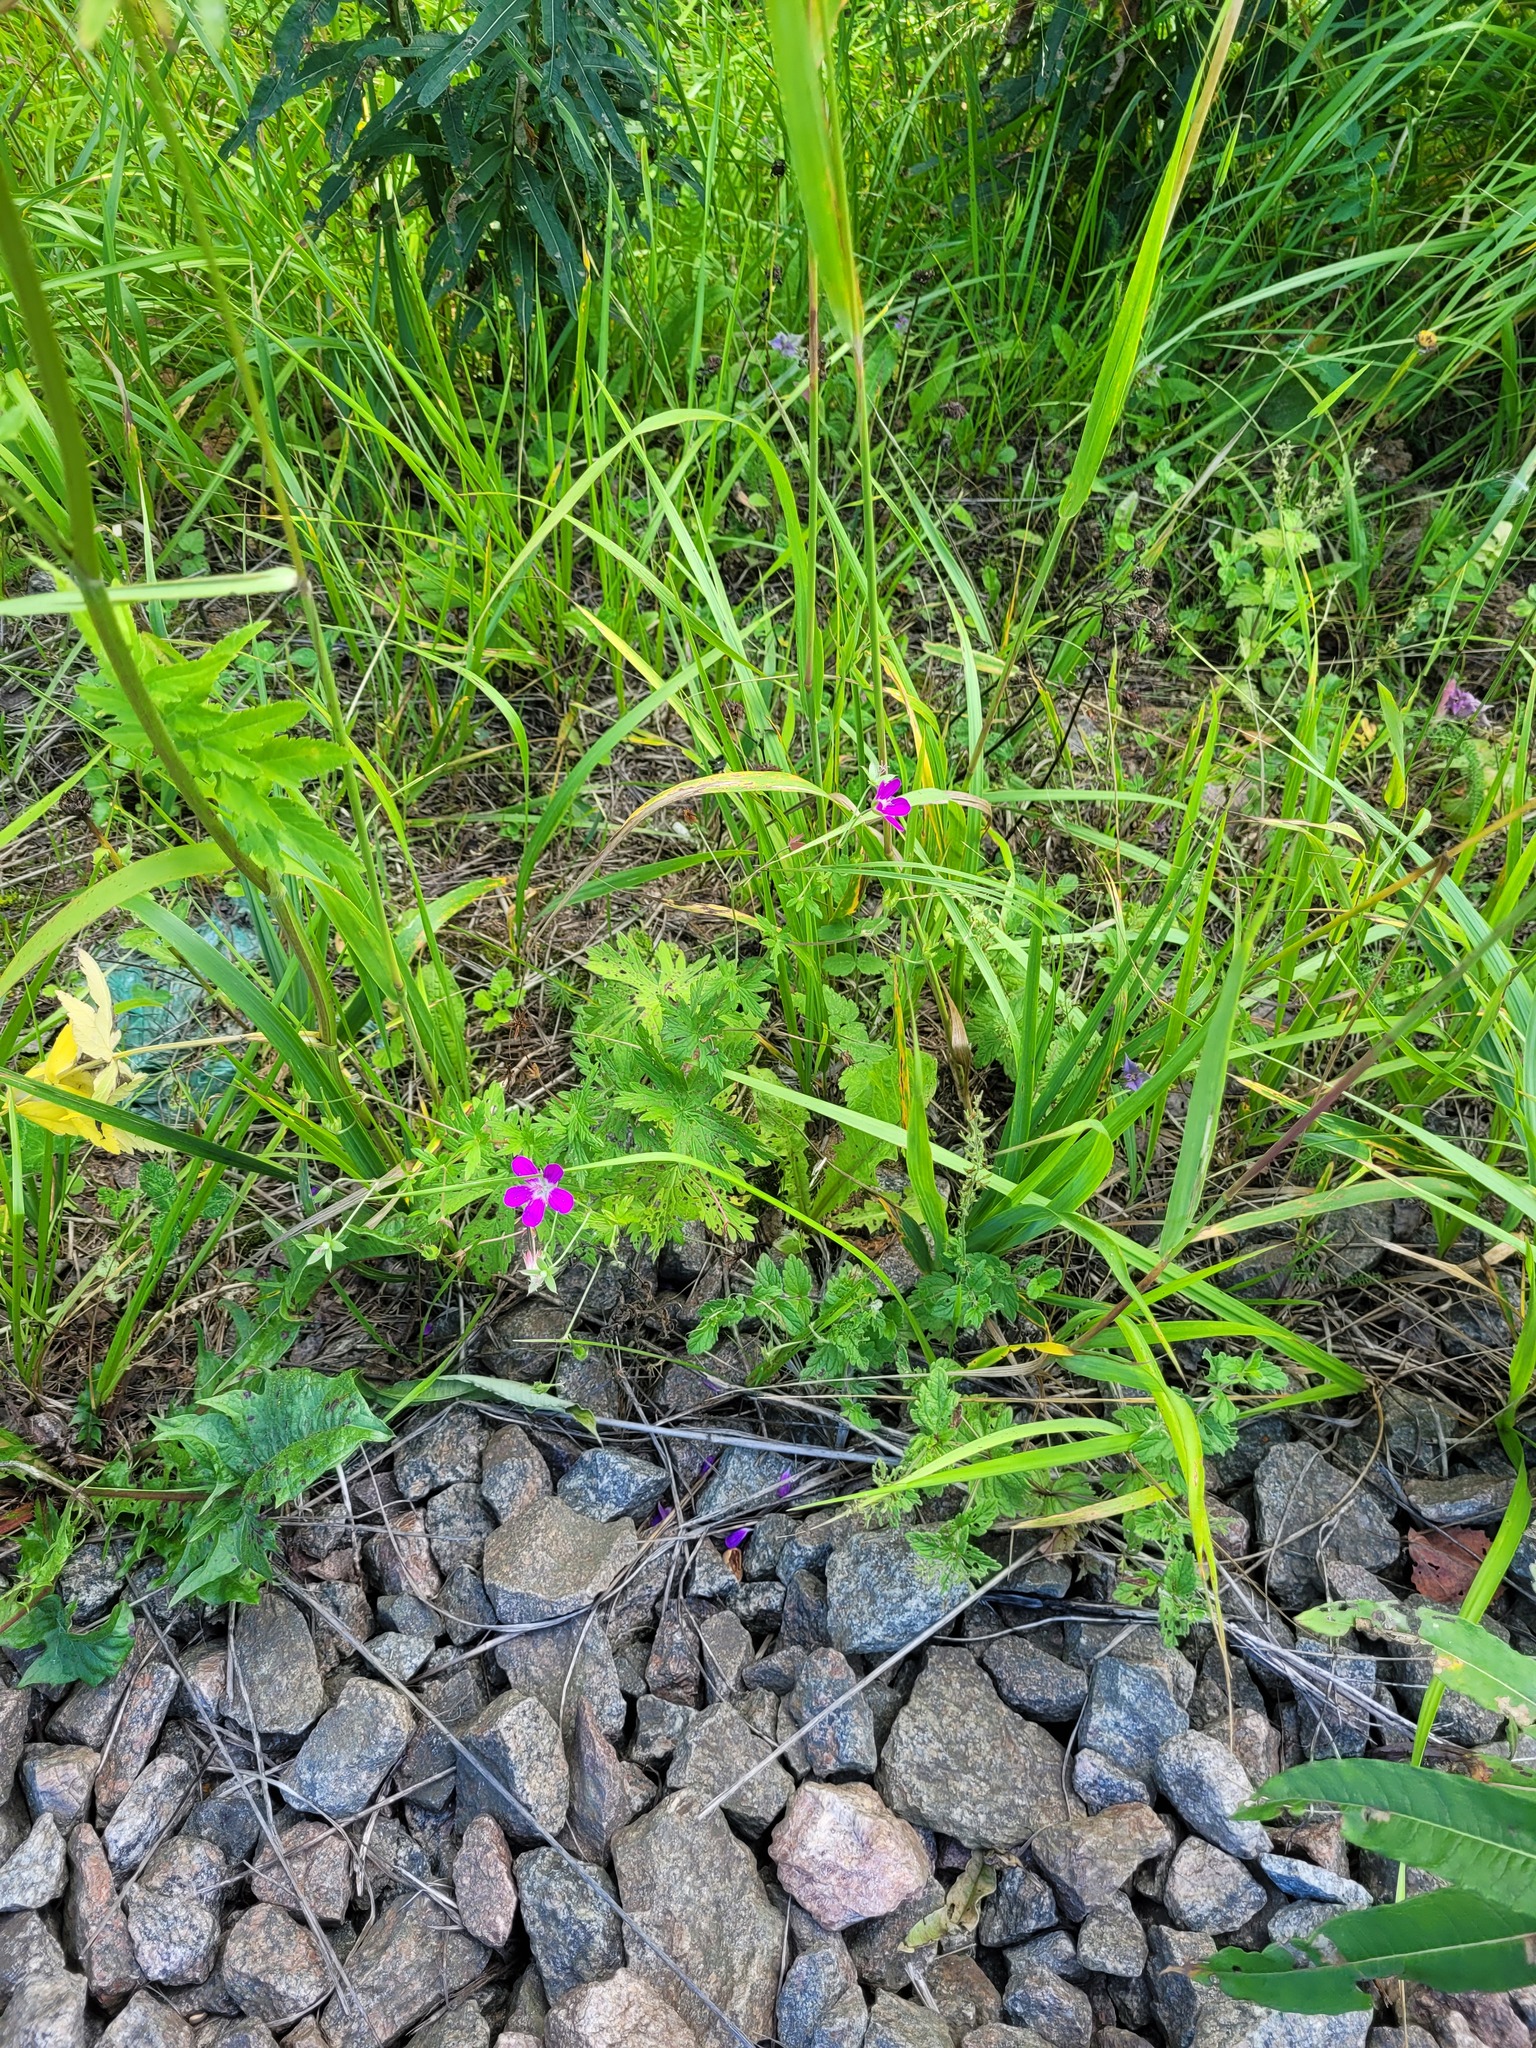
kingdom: Plantae
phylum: Tracheophyta
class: Magnoliopsida
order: Geraniales
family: Geraniaceae
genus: Geranium
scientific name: Geranium palustre
